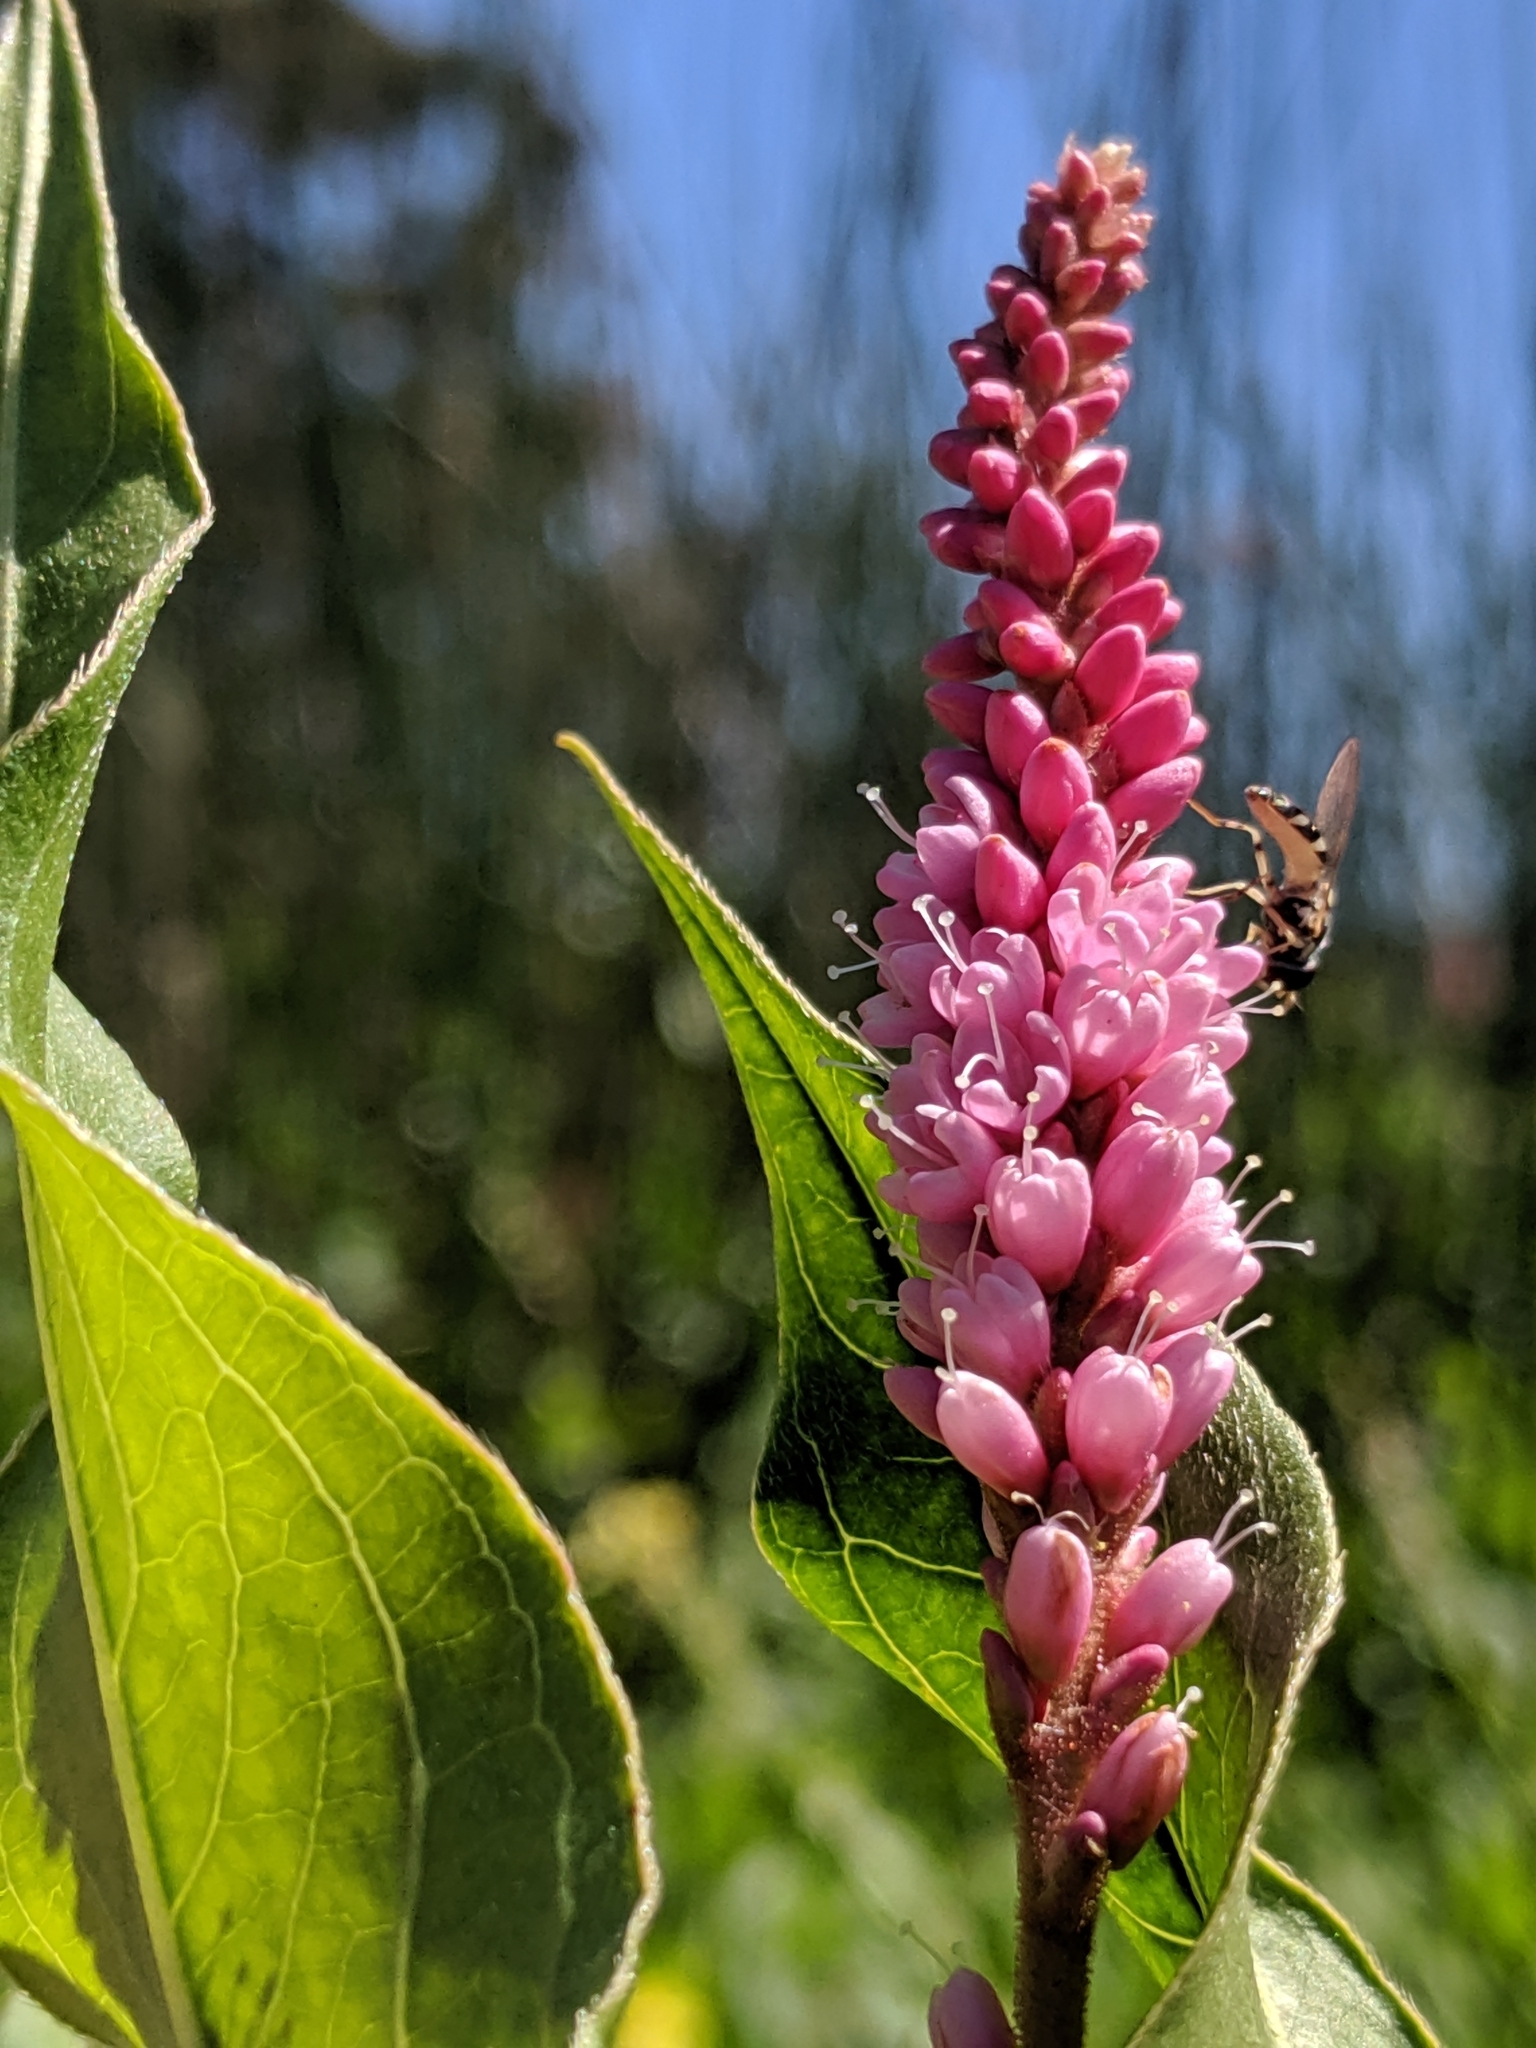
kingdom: Plantae
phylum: Tracheophyta
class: Magnoliopsida
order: Caryophyllales
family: Polygonaceae
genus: Persicaria
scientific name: Persicaria amphibia
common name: Amphibious bistort
